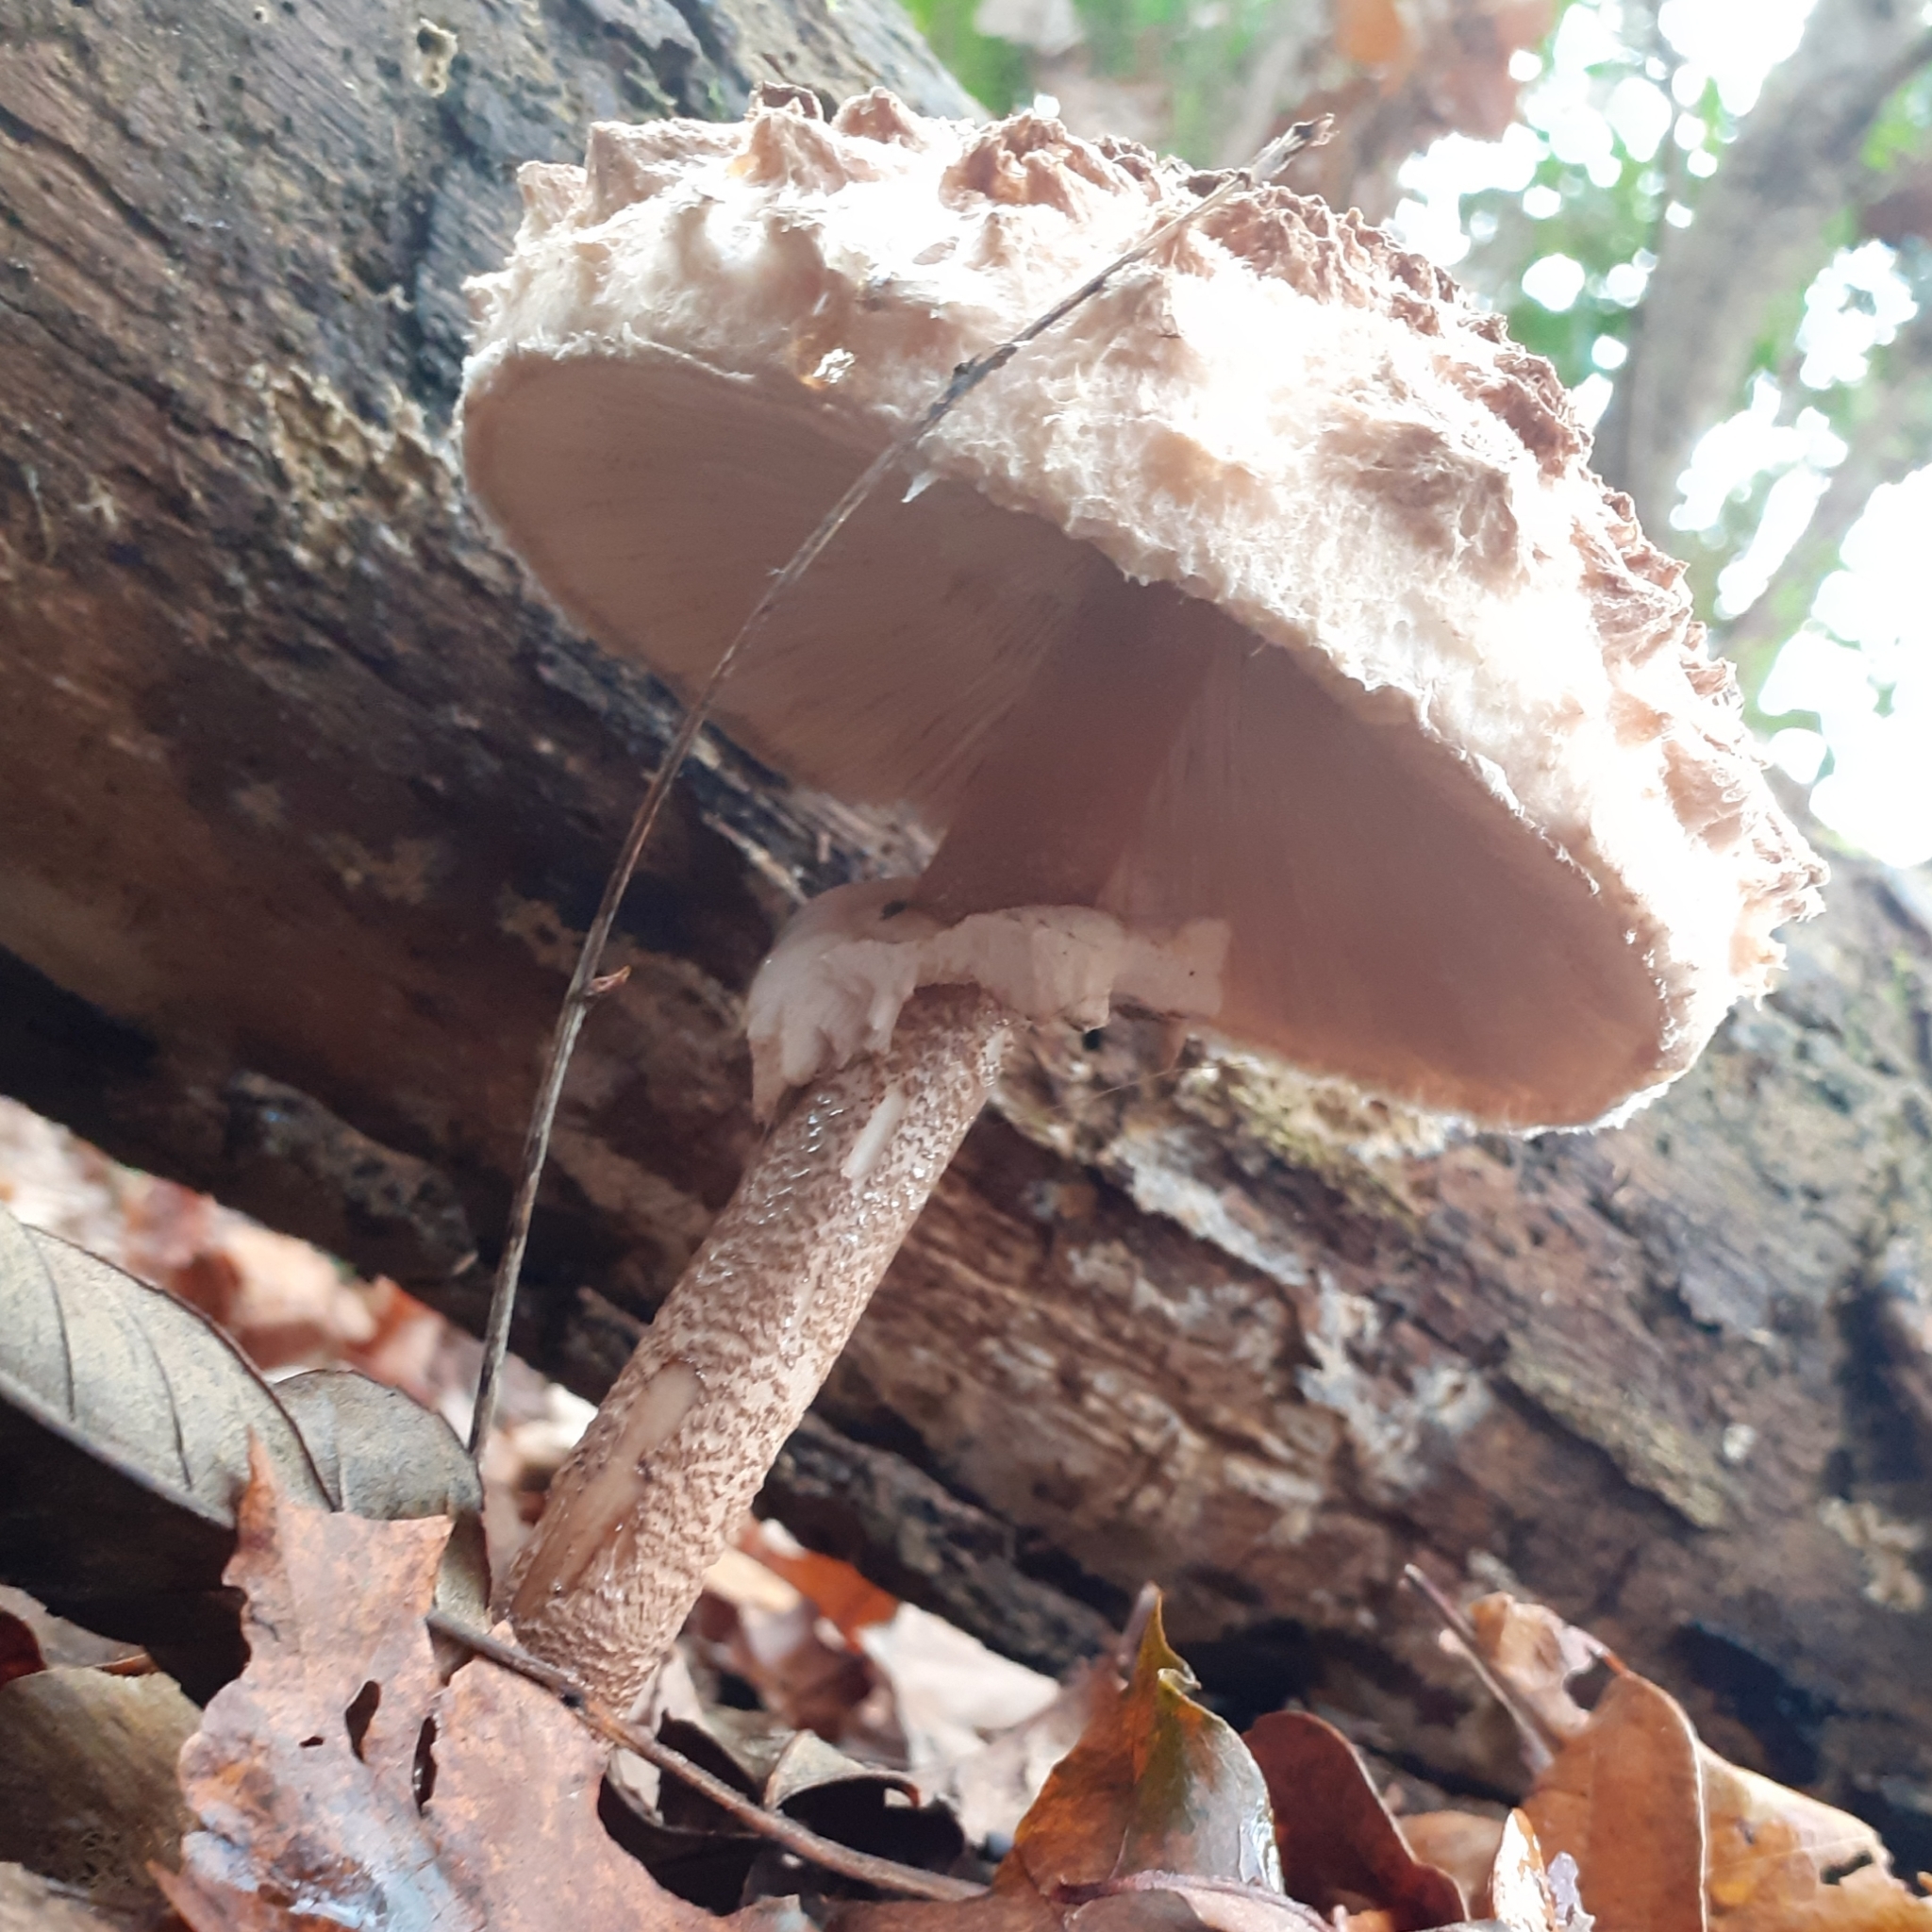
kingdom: Fungi
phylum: Basidiomycota
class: Agaricomycetes
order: Agaricales
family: Agaricaceae
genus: Macrolepiota
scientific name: Macrolepiota procera
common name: Parasol
